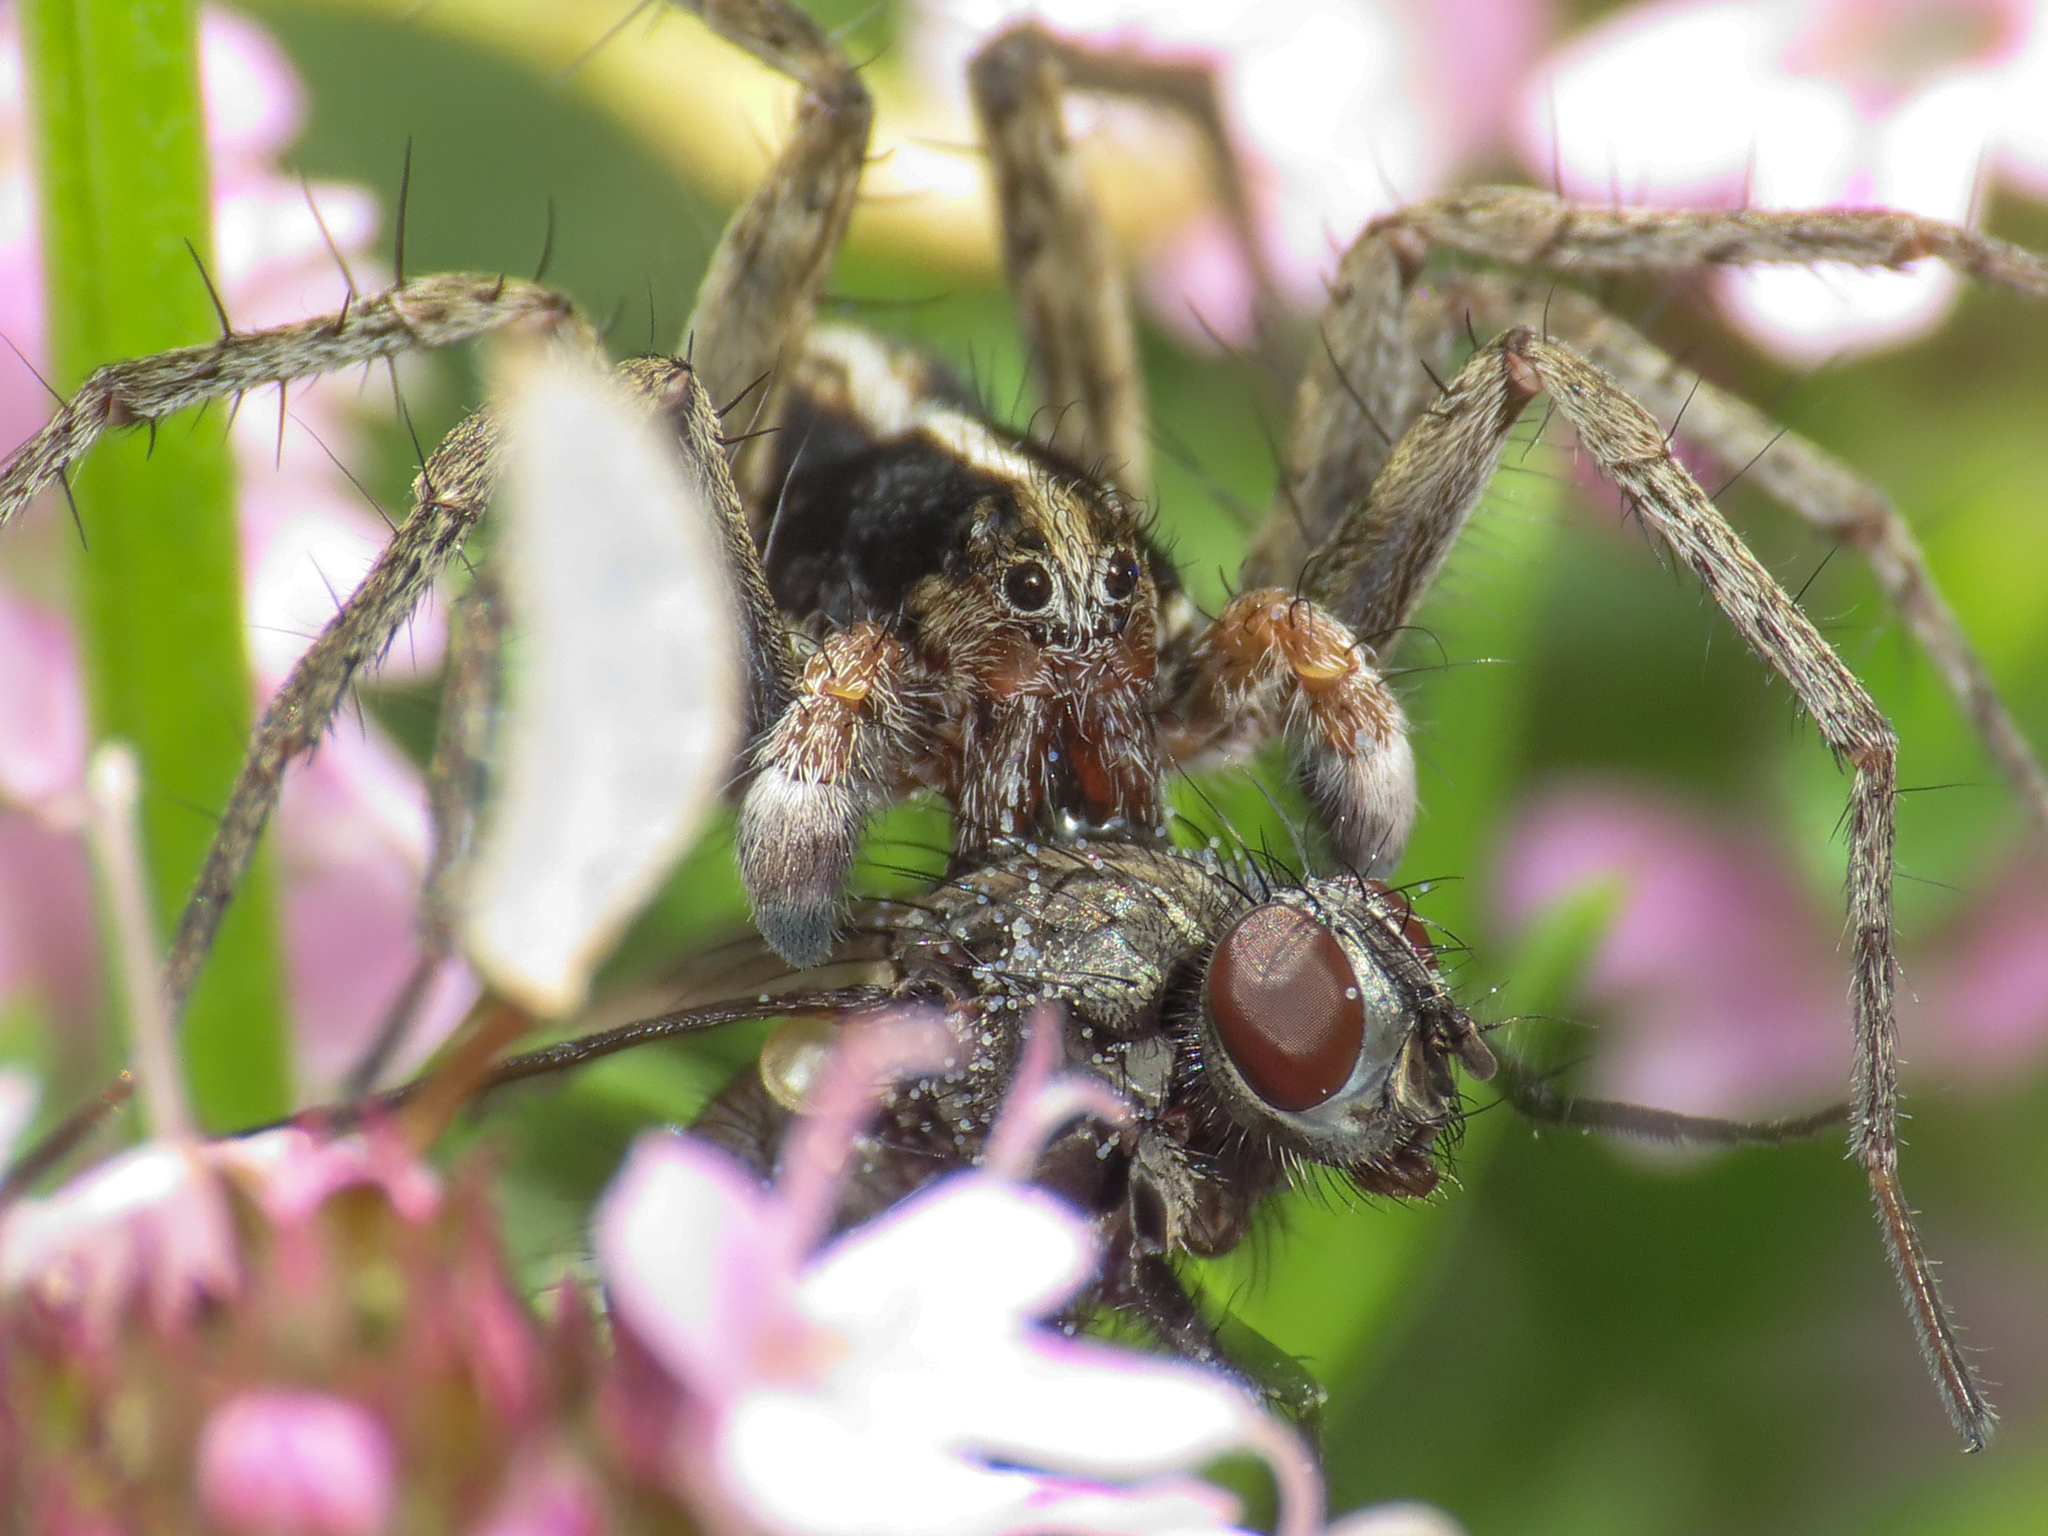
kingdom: Animalia
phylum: Arthropoda
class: Arachnida
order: Araneae
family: Lycosidae
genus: Pardosa
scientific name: Pardosa albatula
